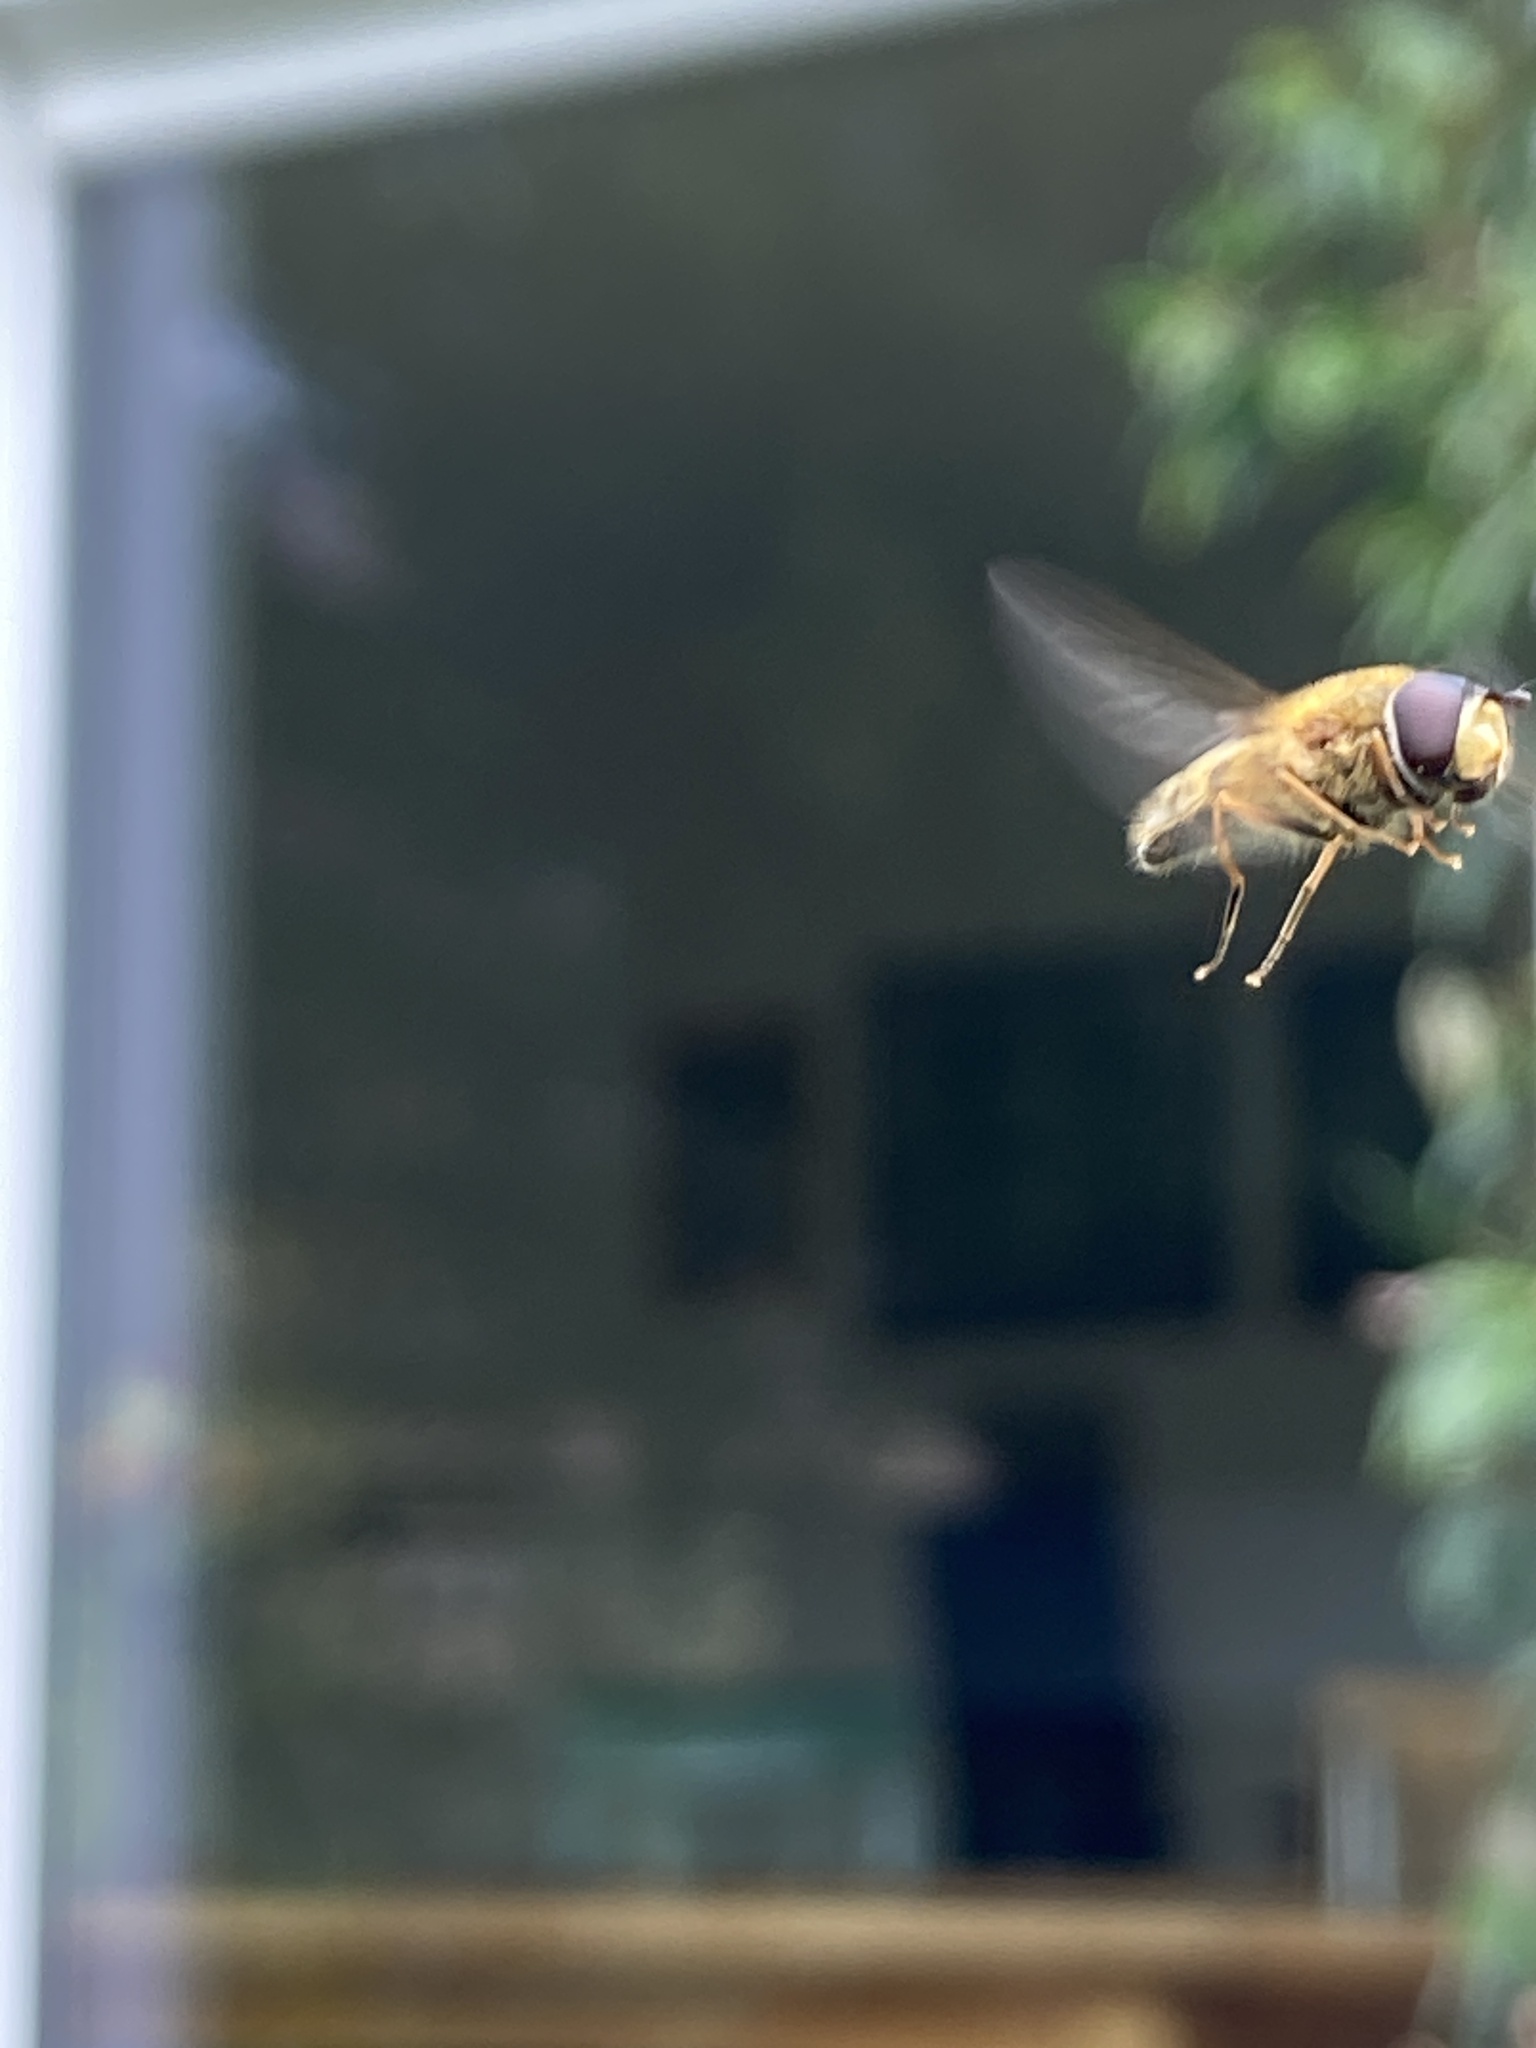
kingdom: Animalia
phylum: Arthropoda
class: Insecta
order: Diptera
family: Syrphidae
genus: Epistrophe
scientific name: Epistrophe eligans
